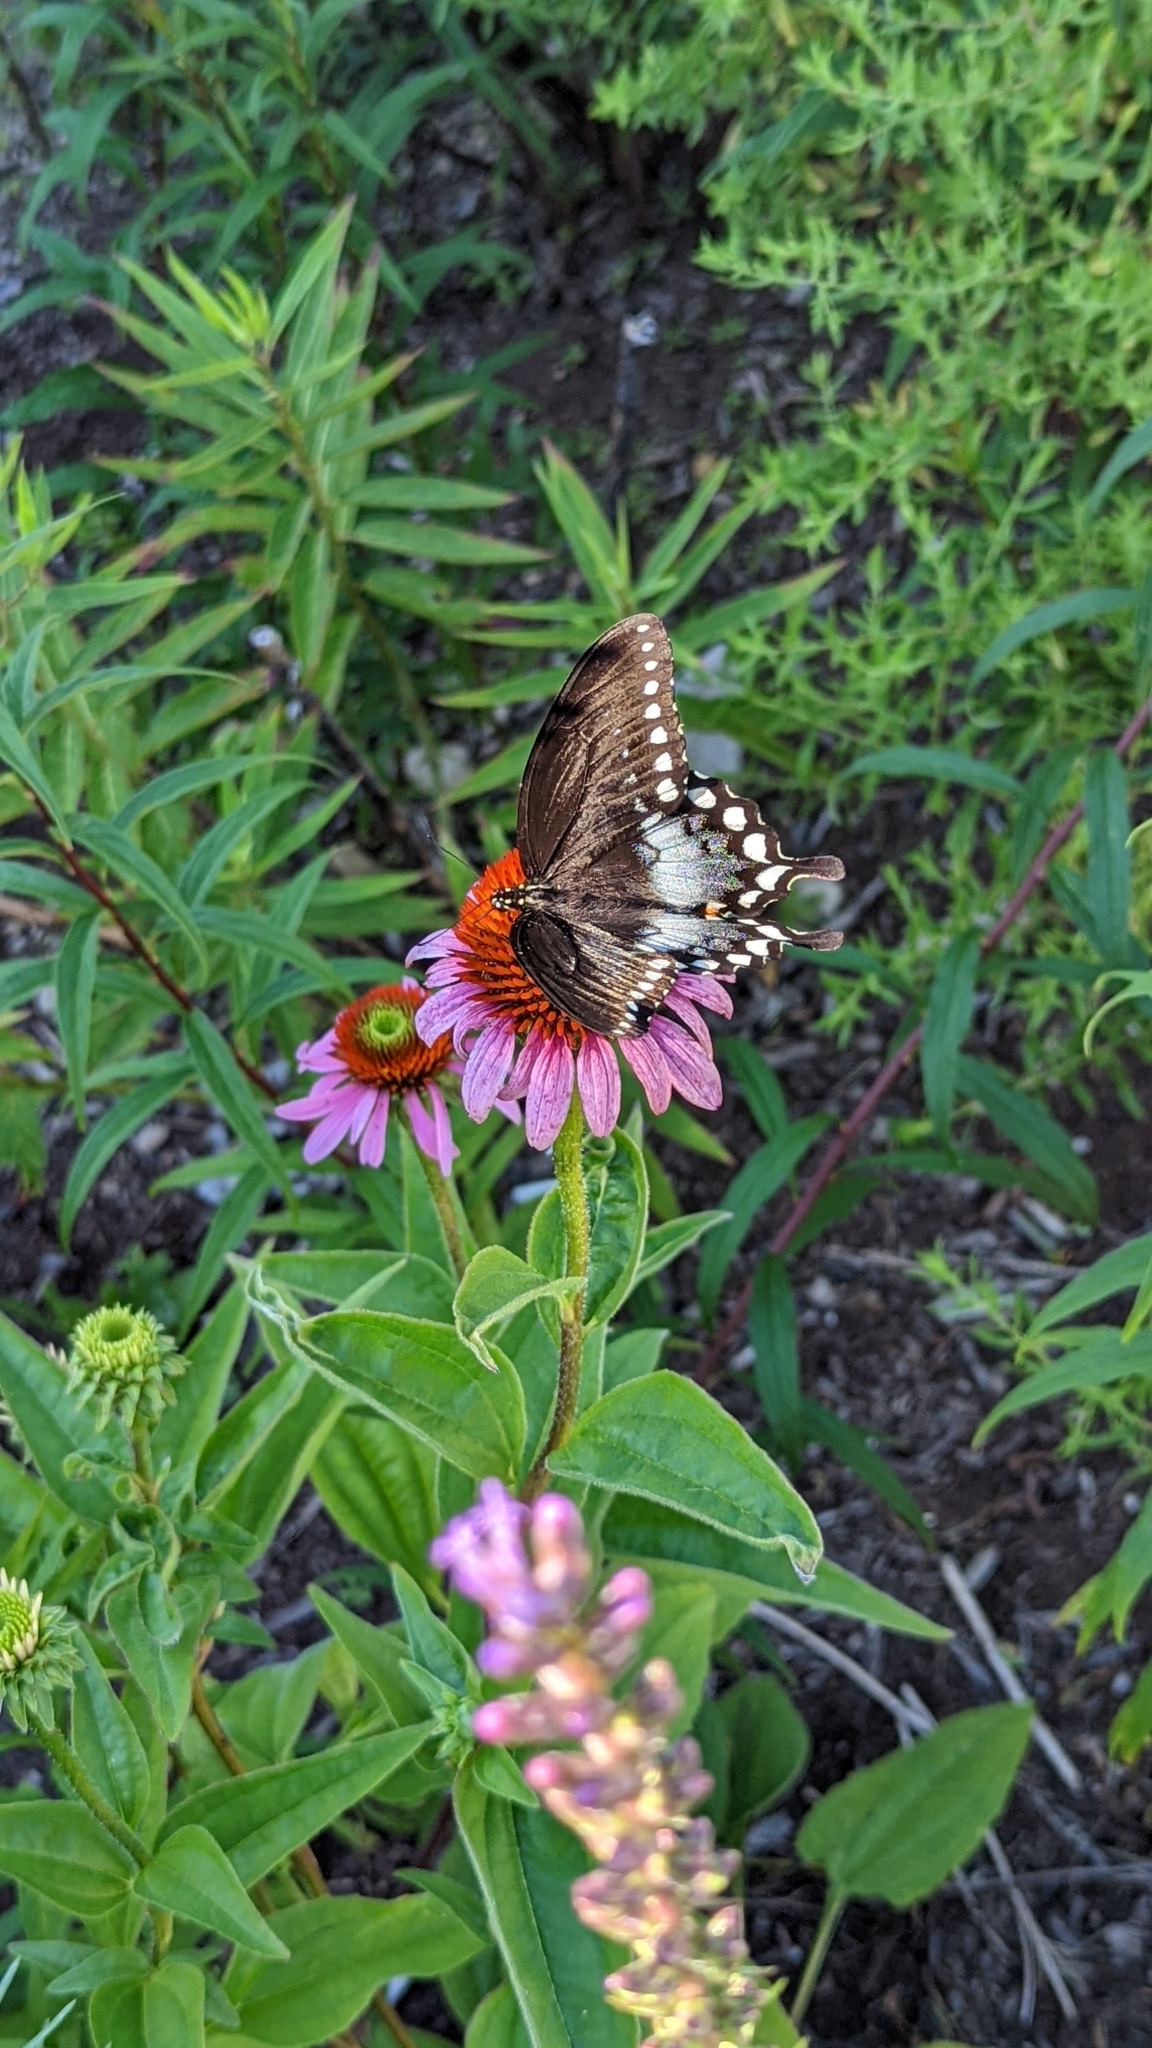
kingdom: Animalia
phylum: Arthropoda
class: Insecta
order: Lepidoptera
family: Papilionidae
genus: Papilio
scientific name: Papilio troilus
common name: Spicebush swallowtail
